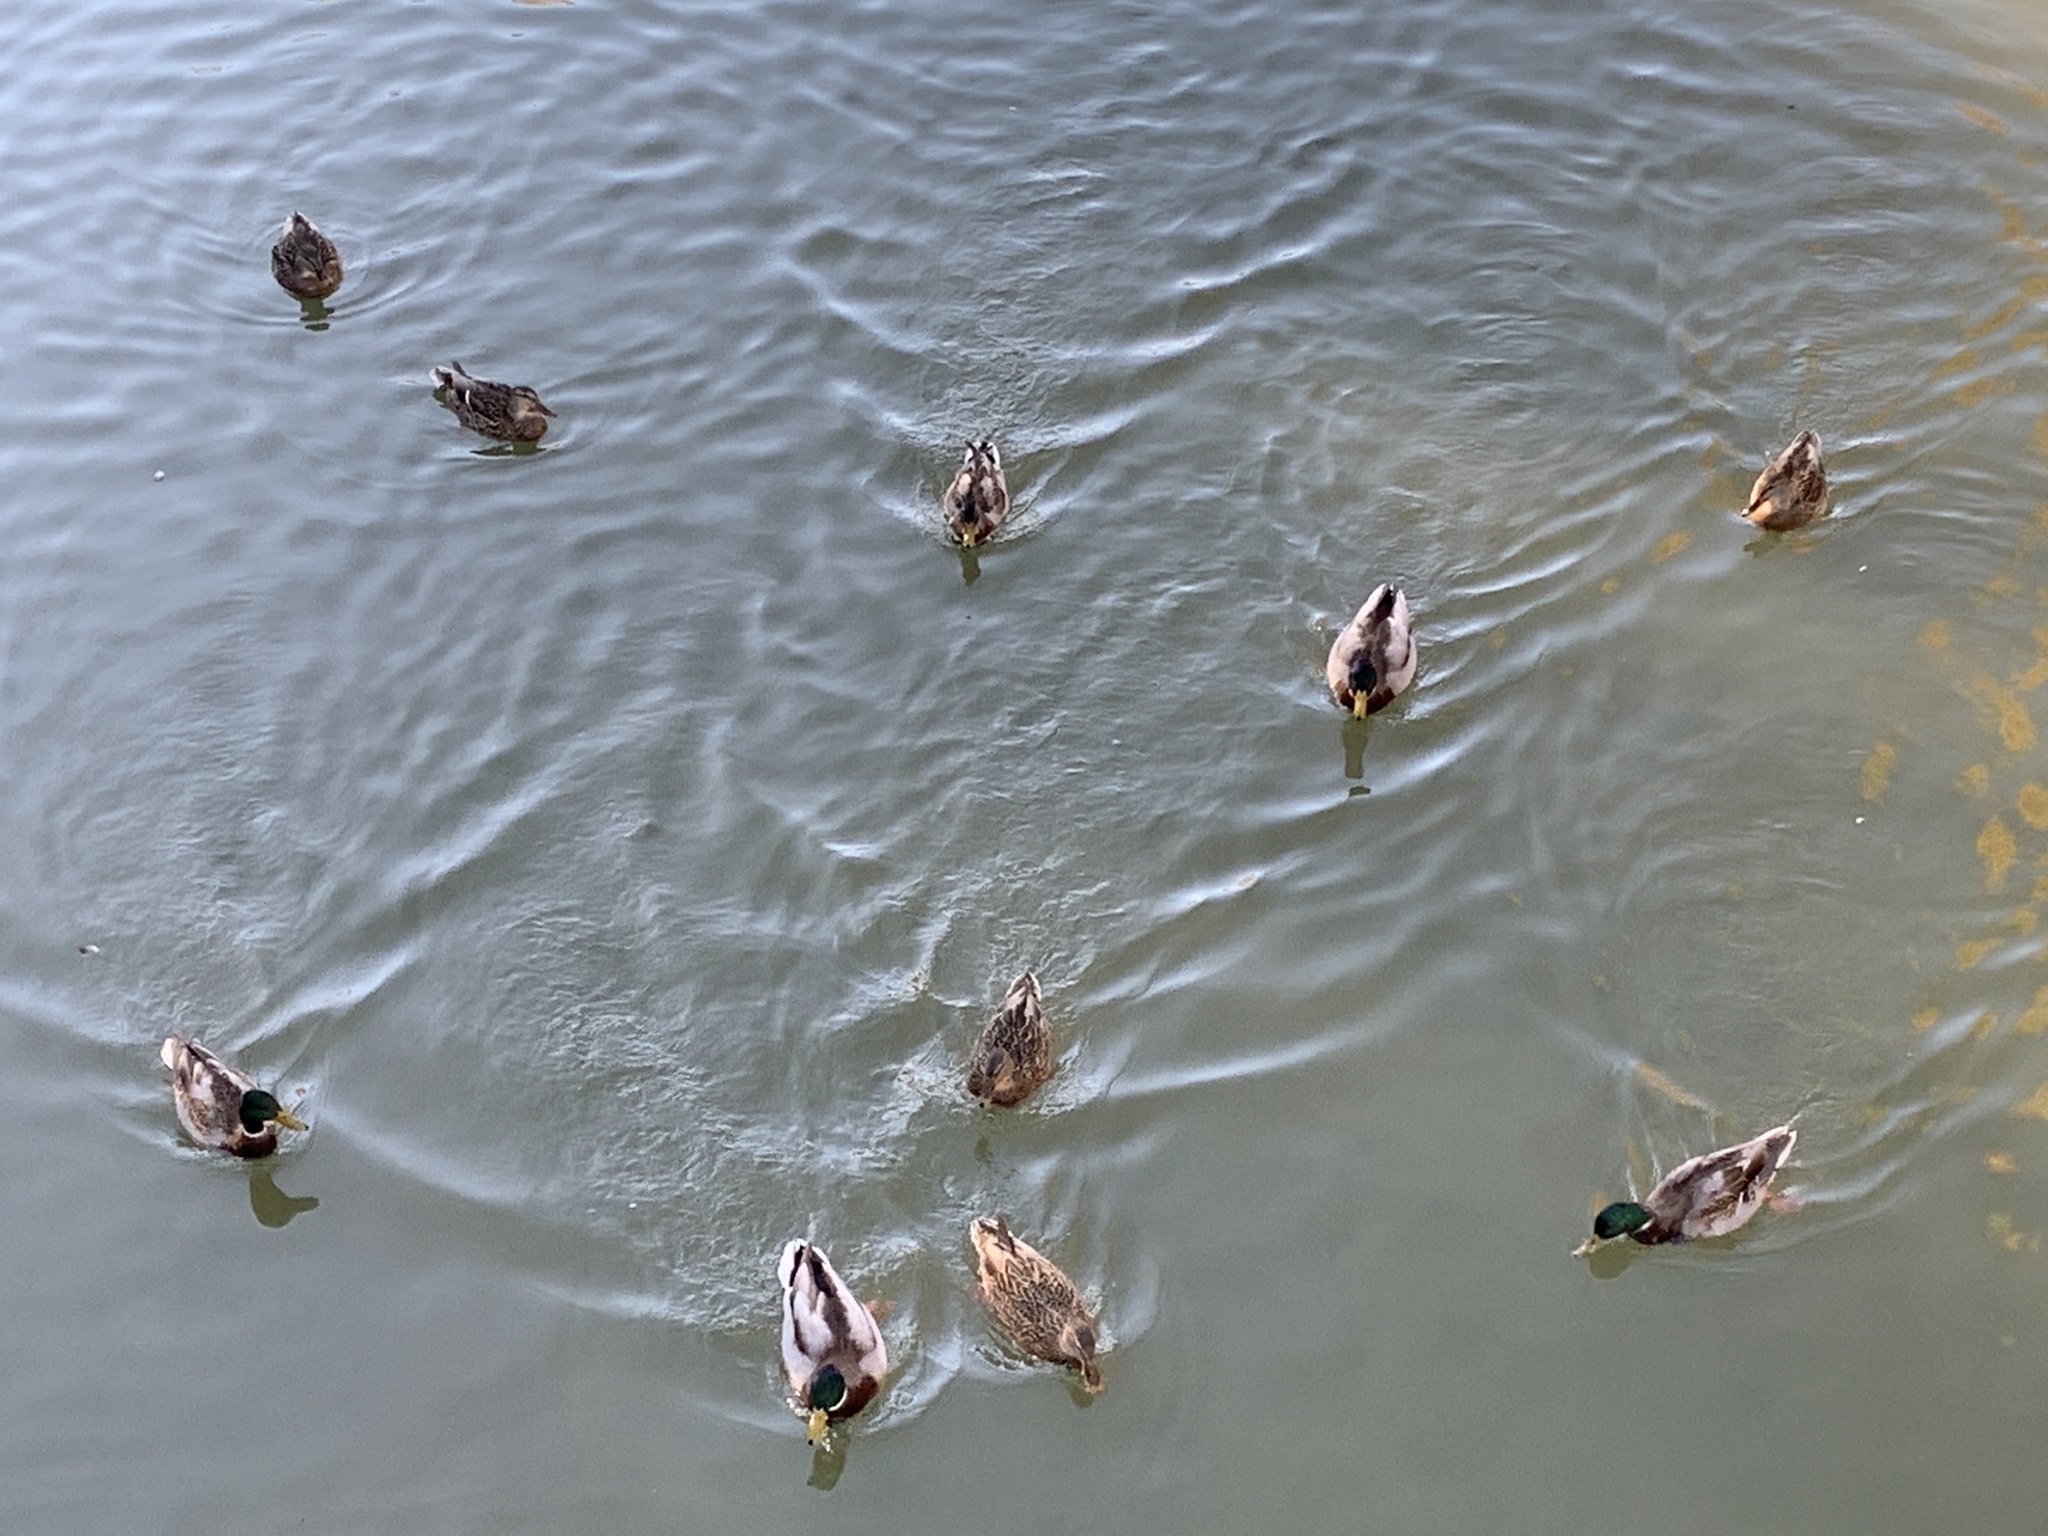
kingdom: Animalia
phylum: Chordata
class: Aves
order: Anseriformes
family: Anatidae
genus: Anas
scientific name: Anas platyrhynchos
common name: Mallard
